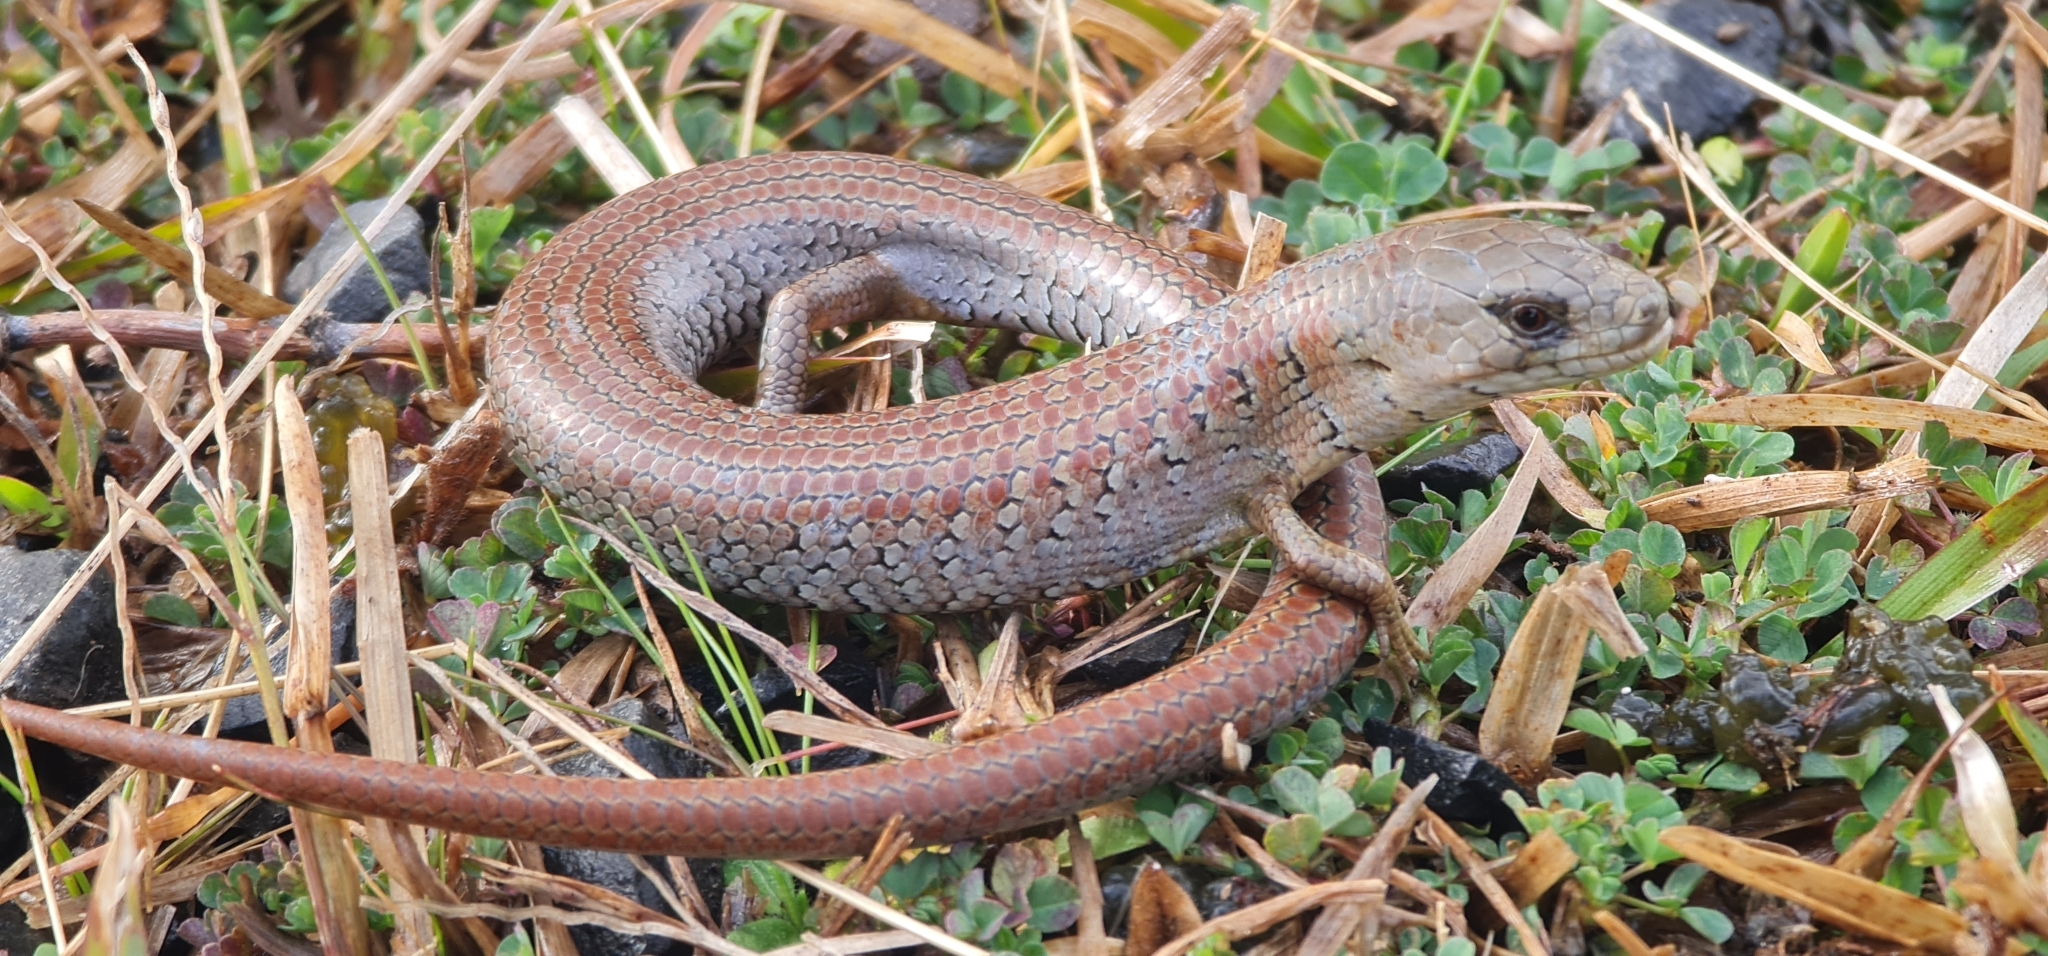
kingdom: Animalia
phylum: Chordata
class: Squamata
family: Scincidae
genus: Cyclodomorphus
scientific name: Cyclodomorphus michaeli
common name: Coastal she-oak slender bluetongue
